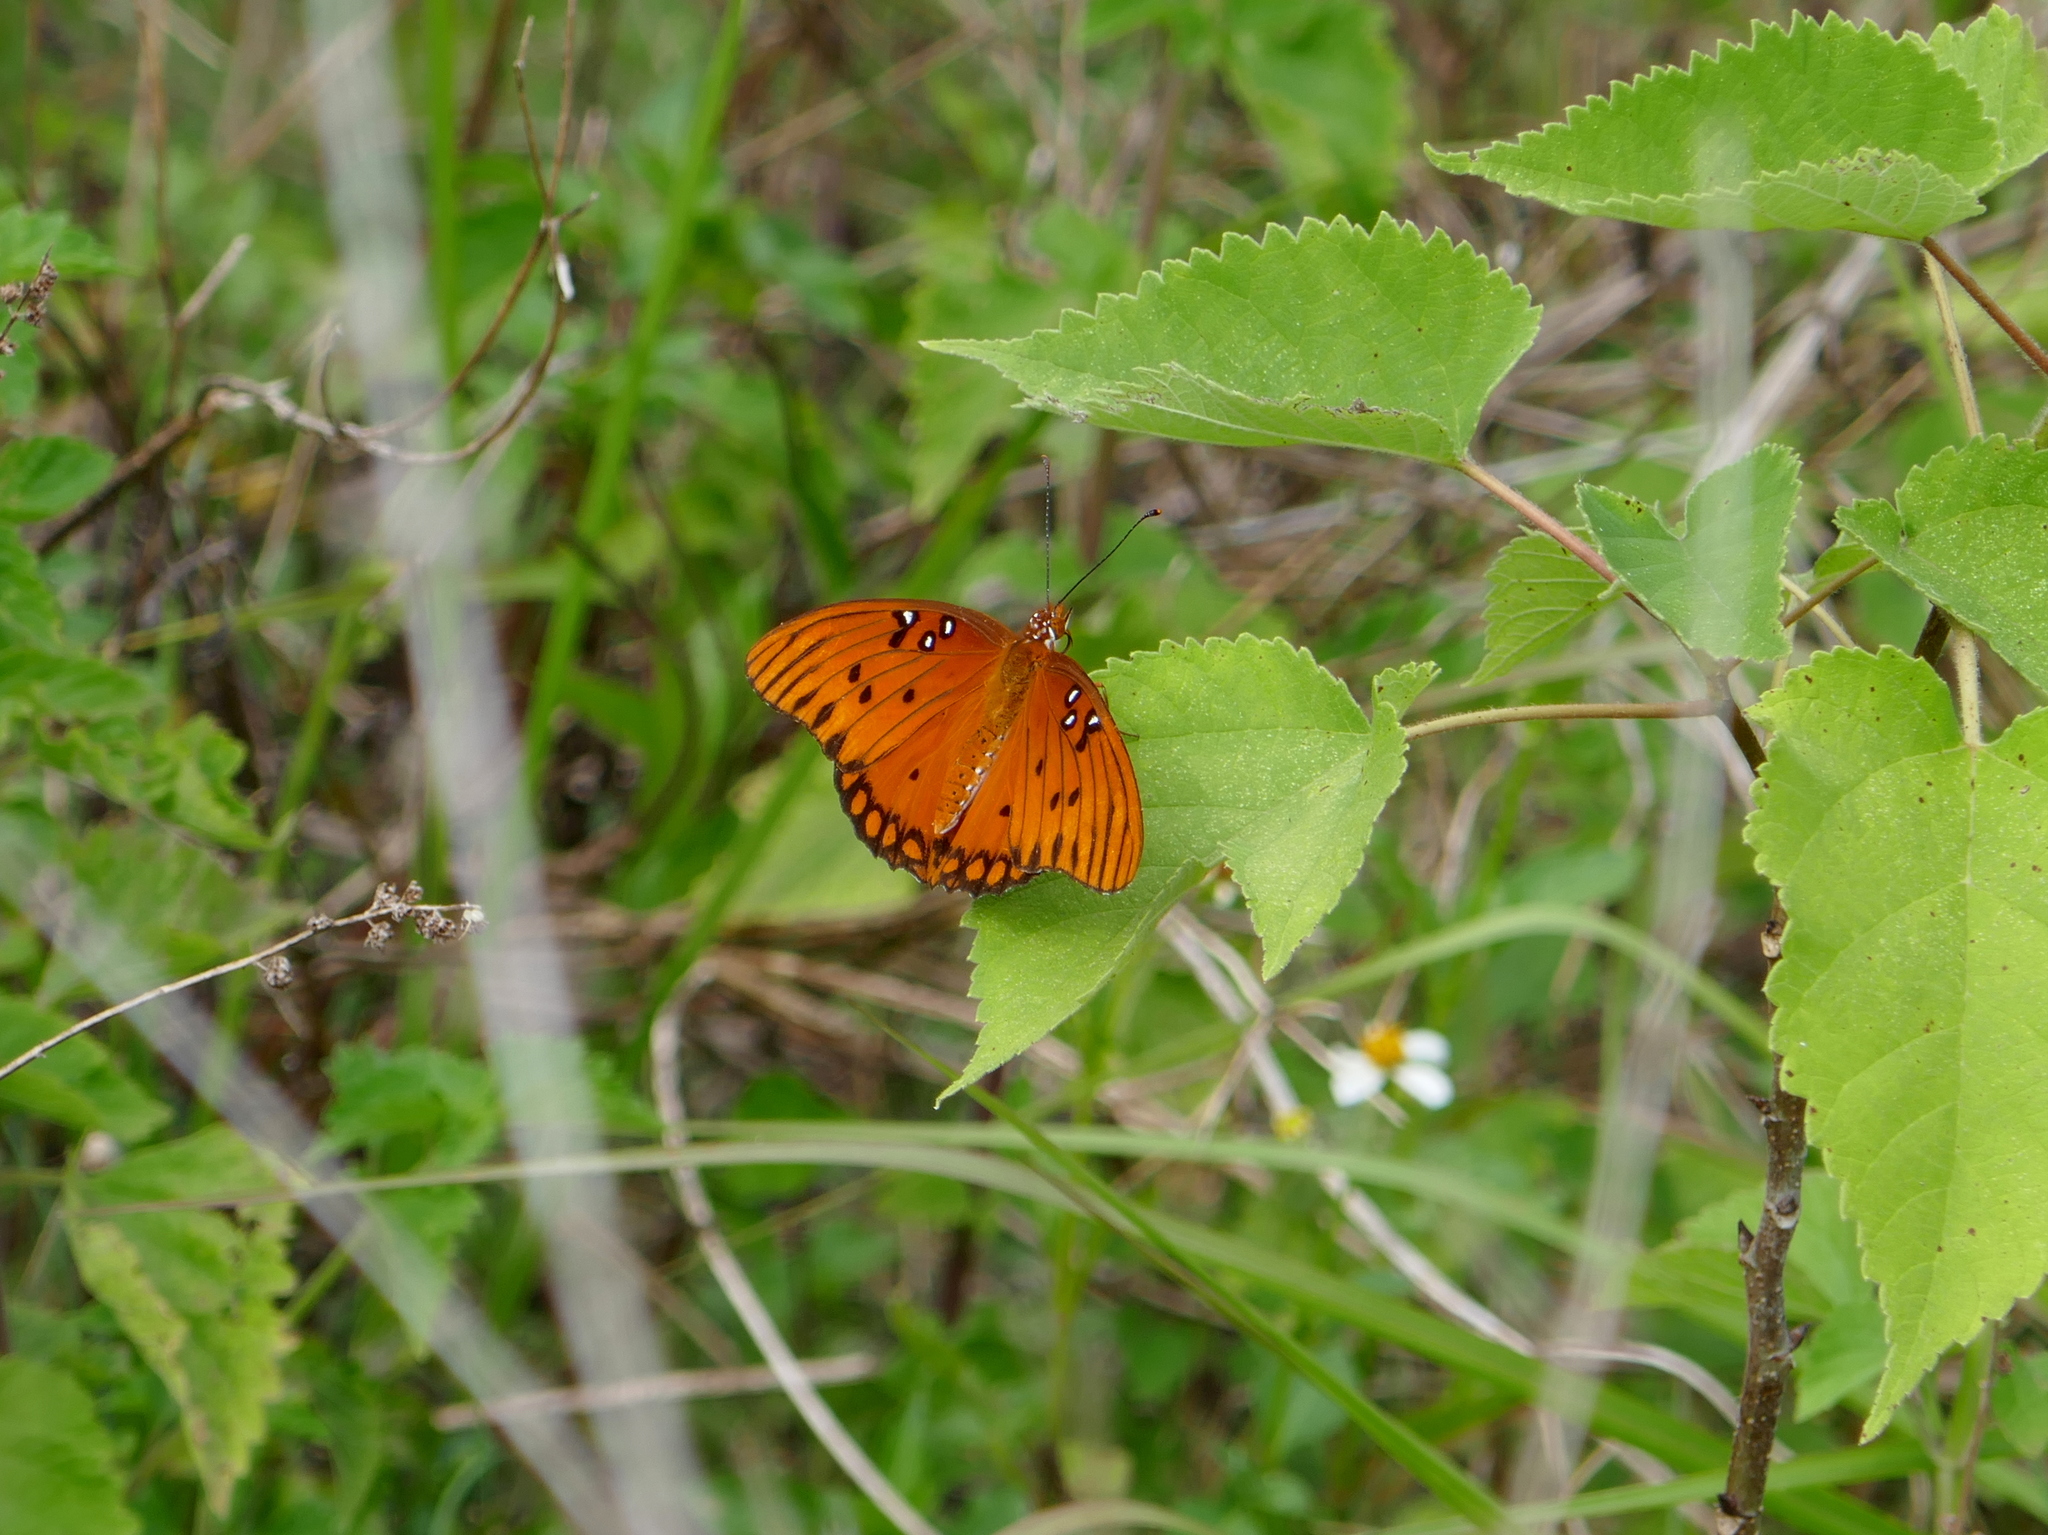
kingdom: Animalia
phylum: Arthropoda
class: Insecta
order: Lepidoptera
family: Nymphalidae
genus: Dione
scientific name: Dione vanillae
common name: Gulf fritillary
